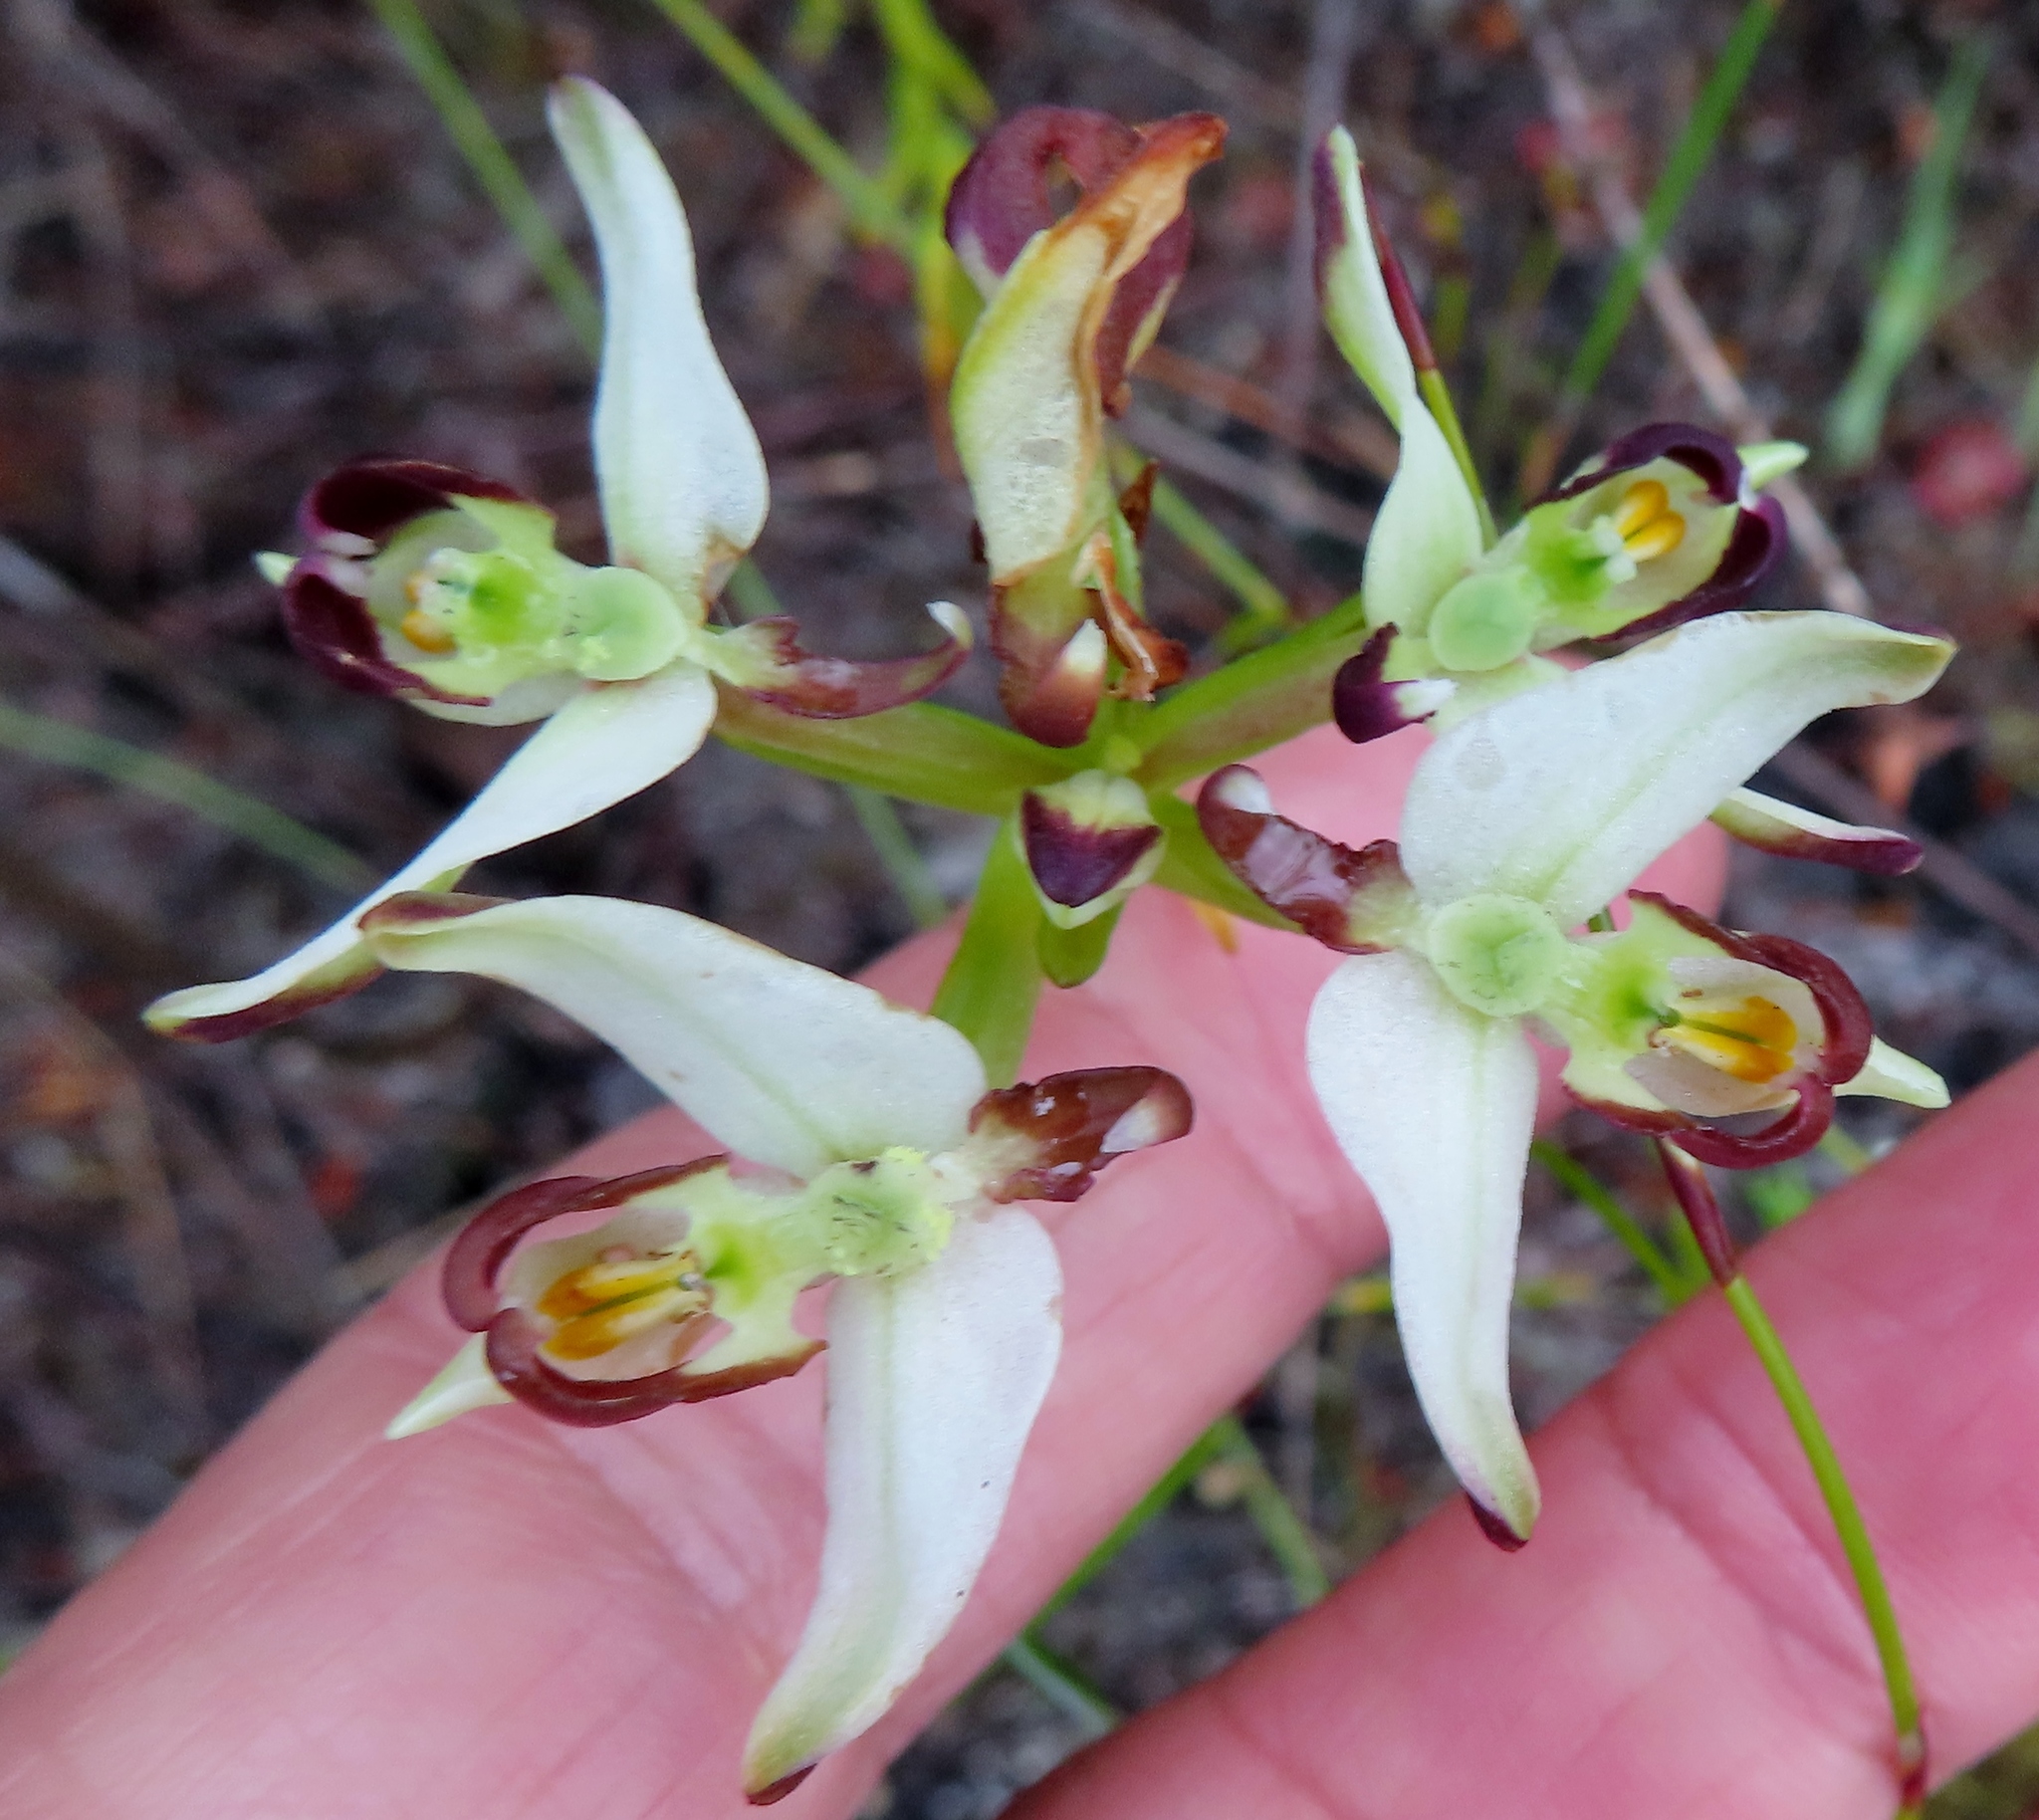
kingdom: Plantae
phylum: Tracheophyta
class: Liliopsida
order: Asparagales
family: Orchidaceae
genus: Disa
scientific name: Disa bivalvata
